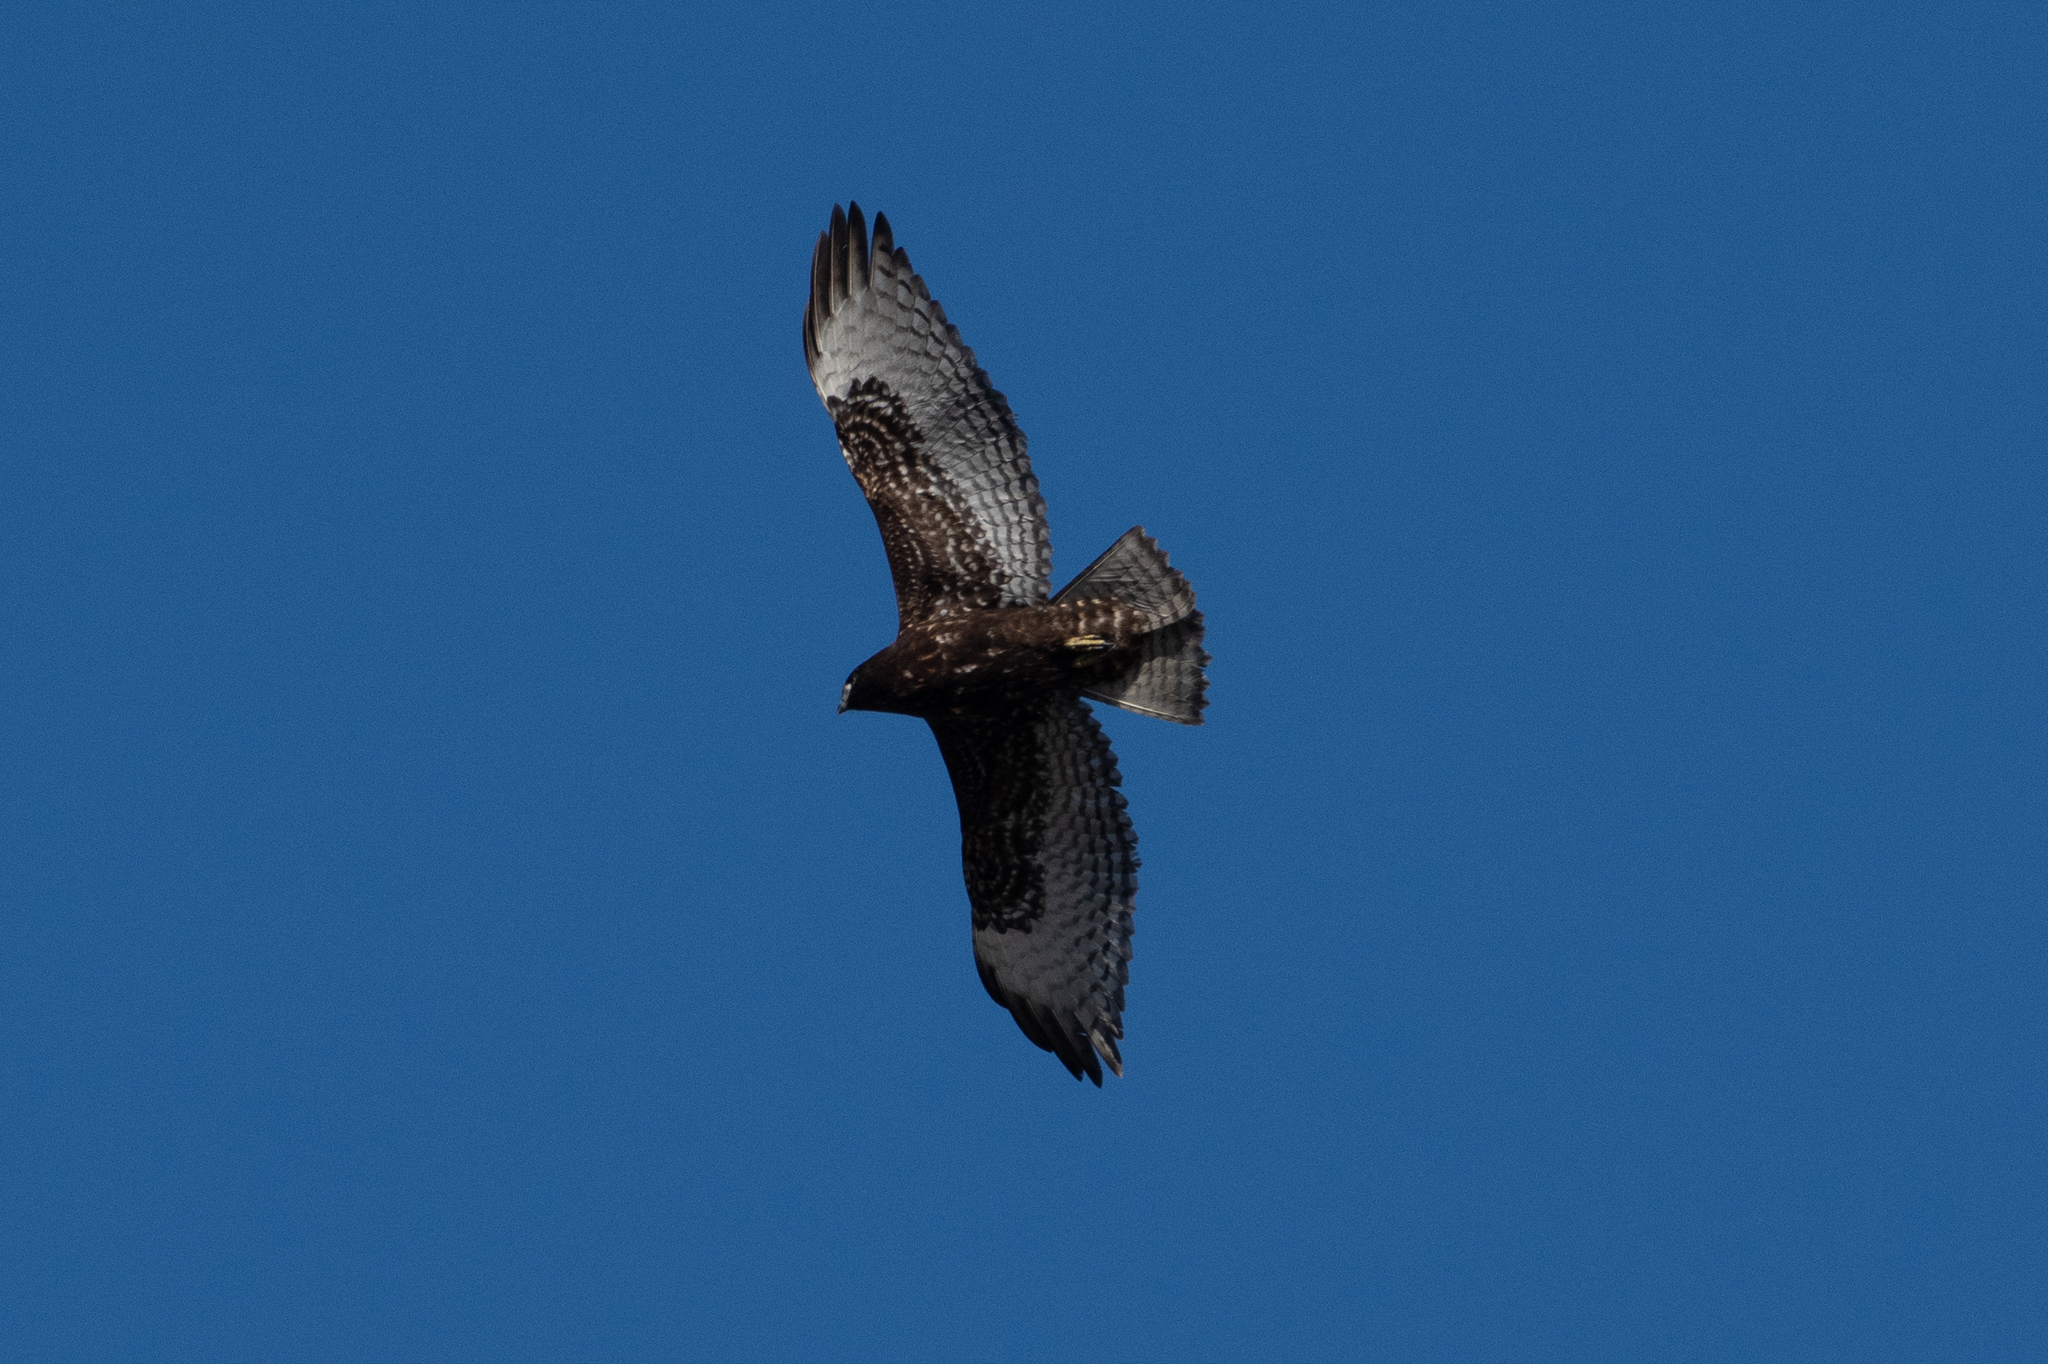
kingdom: Animalia
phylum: Chordata
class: Aves
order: Accipitriformes
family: Accipitridae
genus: Buteo
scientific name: Buteo jamaicensis
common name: Red-tailed hawk
